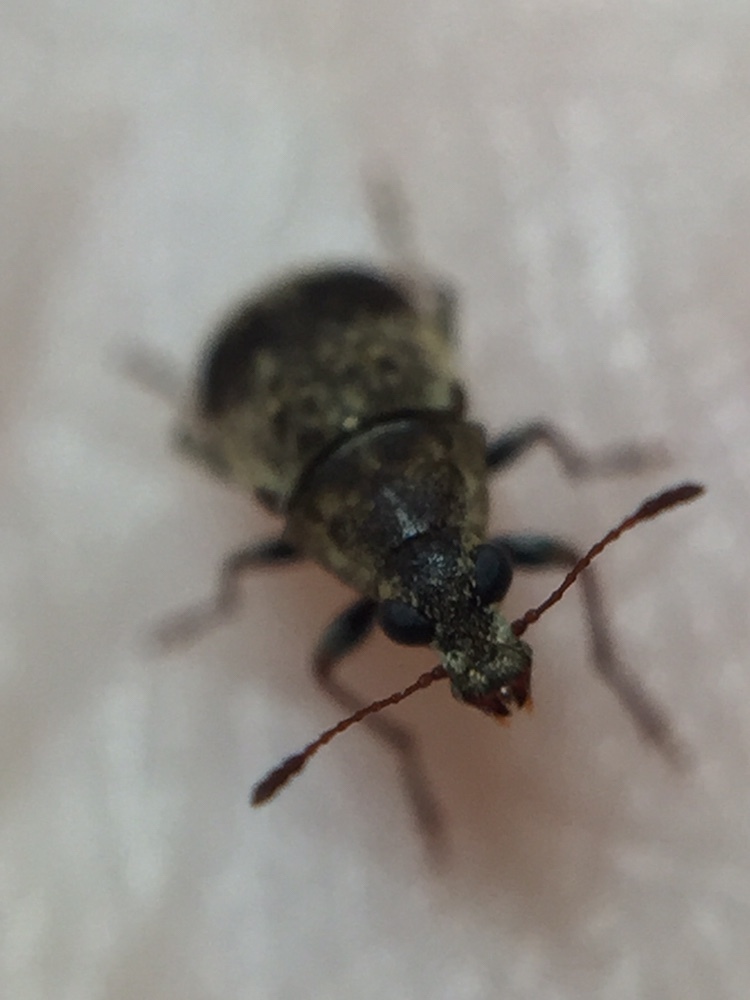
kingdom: Animalia
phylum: Arthropoda
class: Insecta
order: Coleoptera
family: Anthribidae
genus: Cacephatus
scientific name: Cacephatus huttoni
